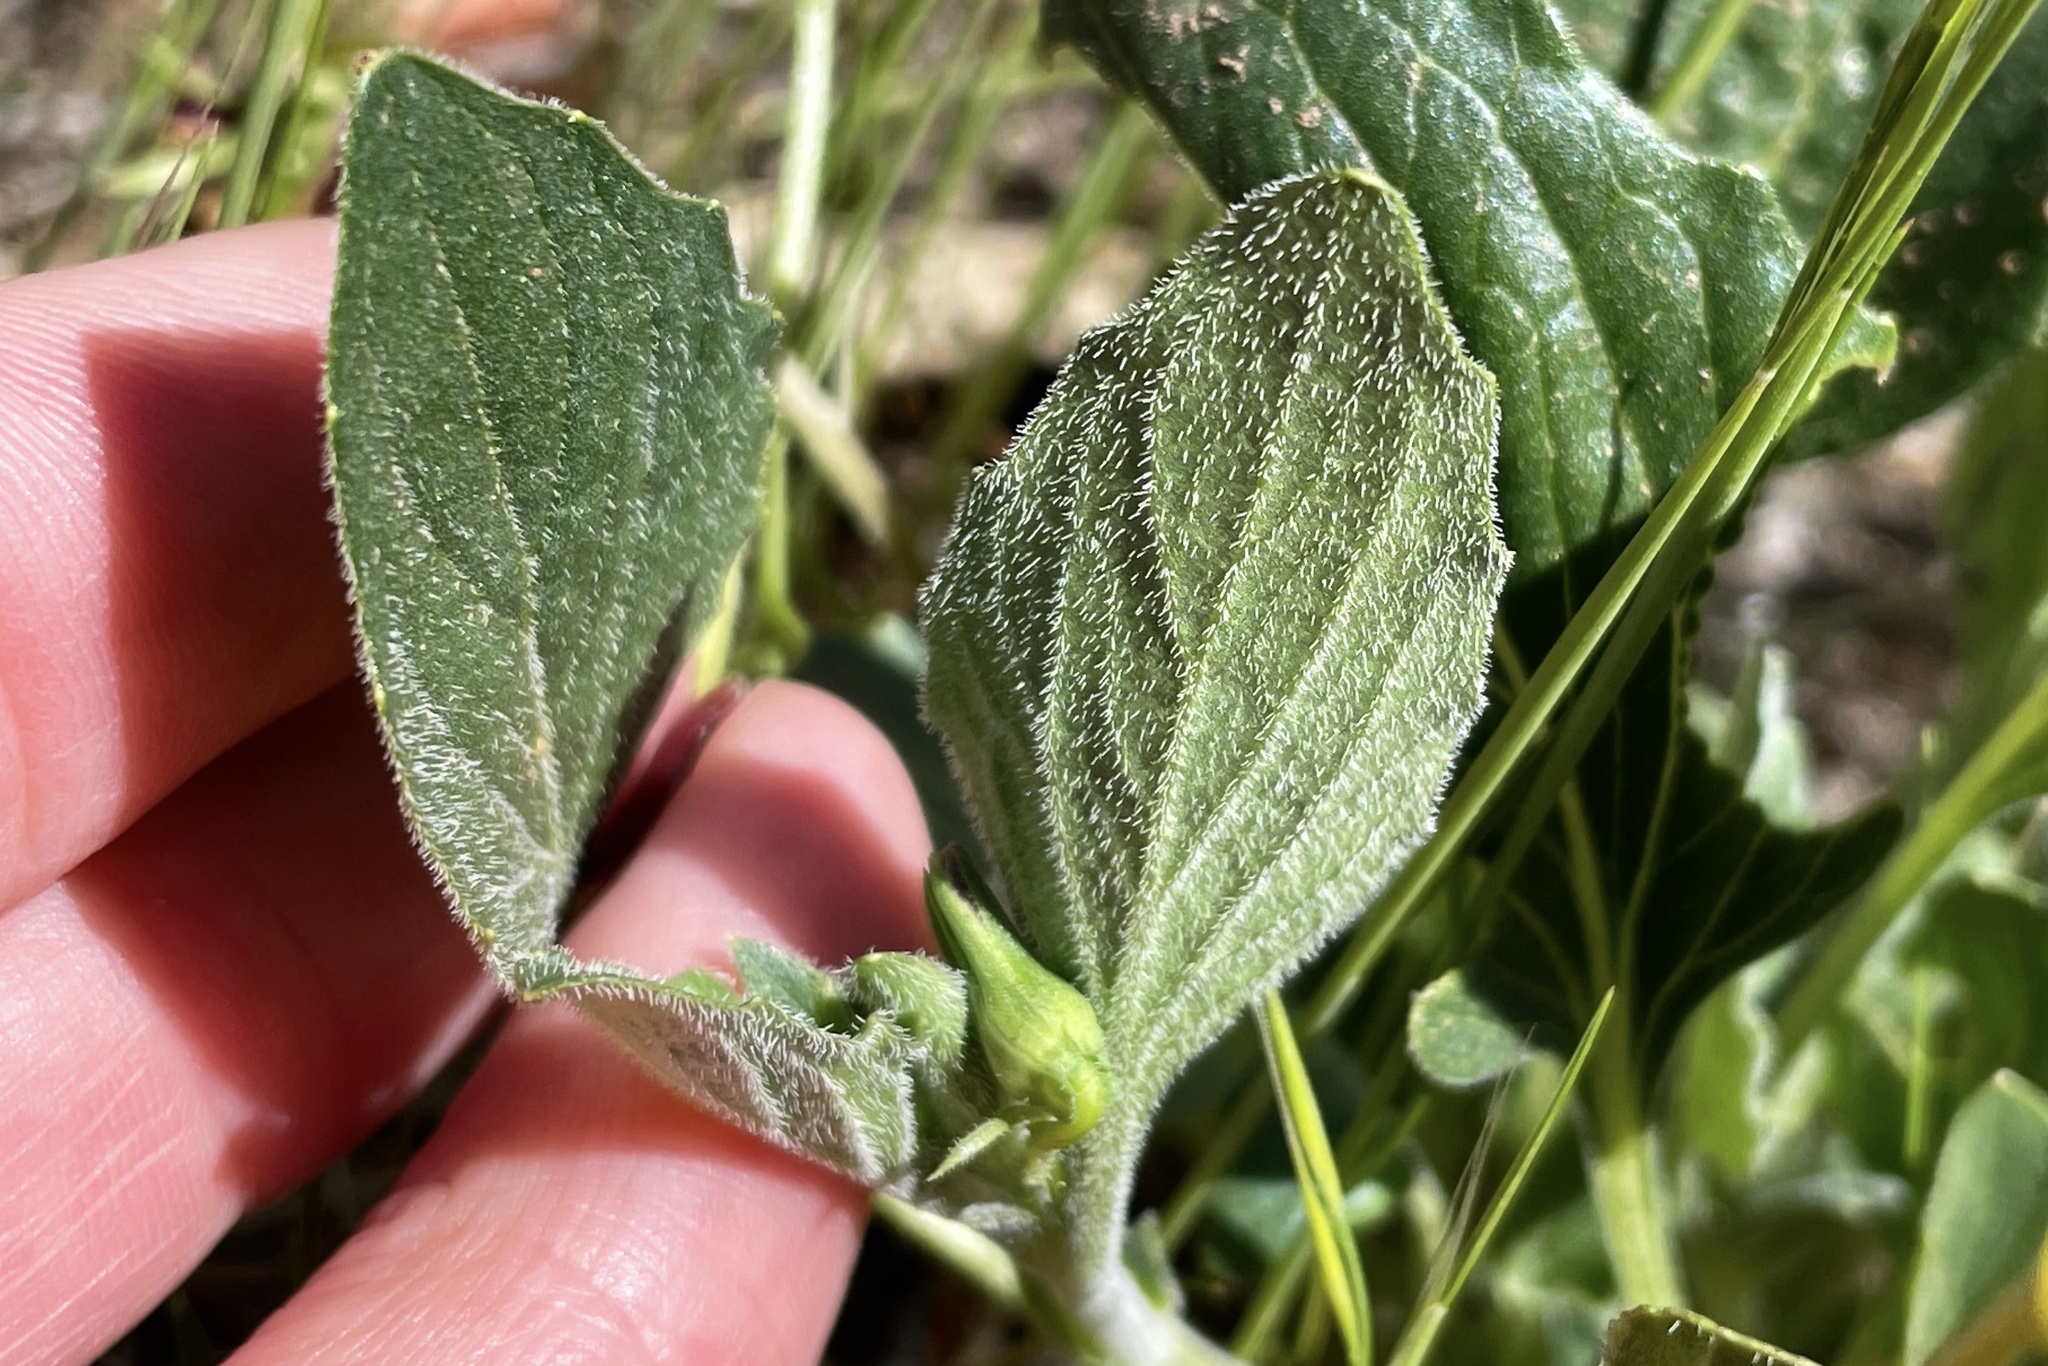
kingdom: Plantae
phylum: Tracheophyta
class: Magnoliopsida
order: Malpighiales
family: Violaceae
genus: Viola
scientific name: Viola purpurea
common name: Pine violet
